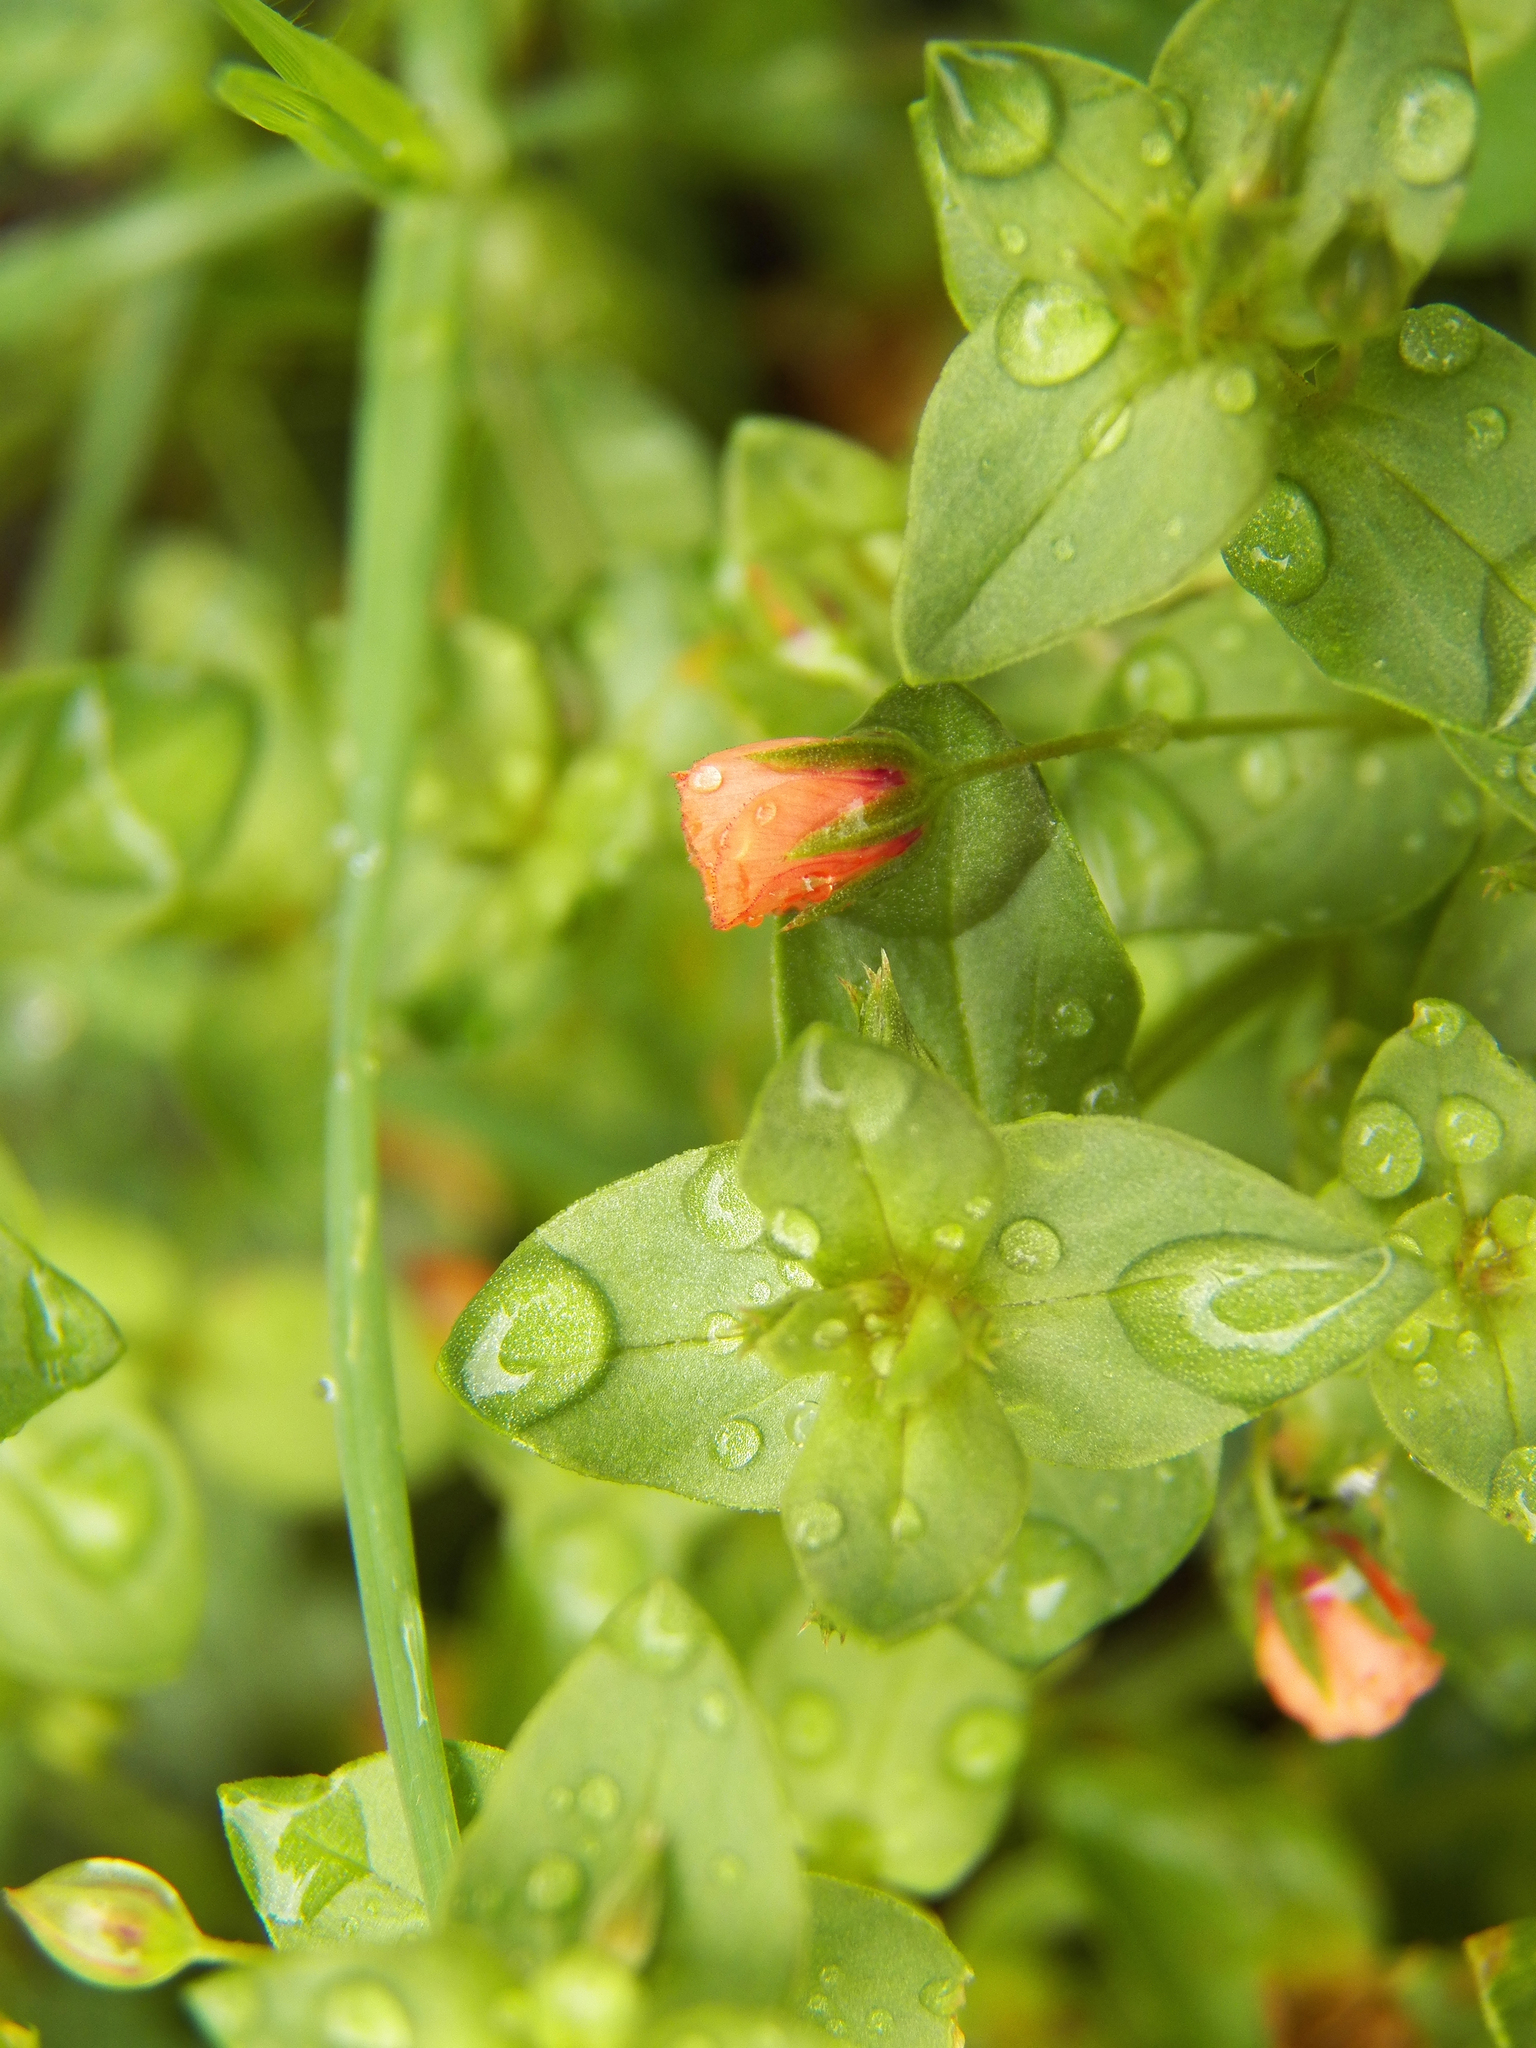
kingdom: Plantae
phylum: Tracheophyta
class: Magnoliopsida
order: Ericales
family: Primulaceae
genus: Lysimachia
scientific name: Lysimachia arvensis
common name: Scarlet pimpernel
